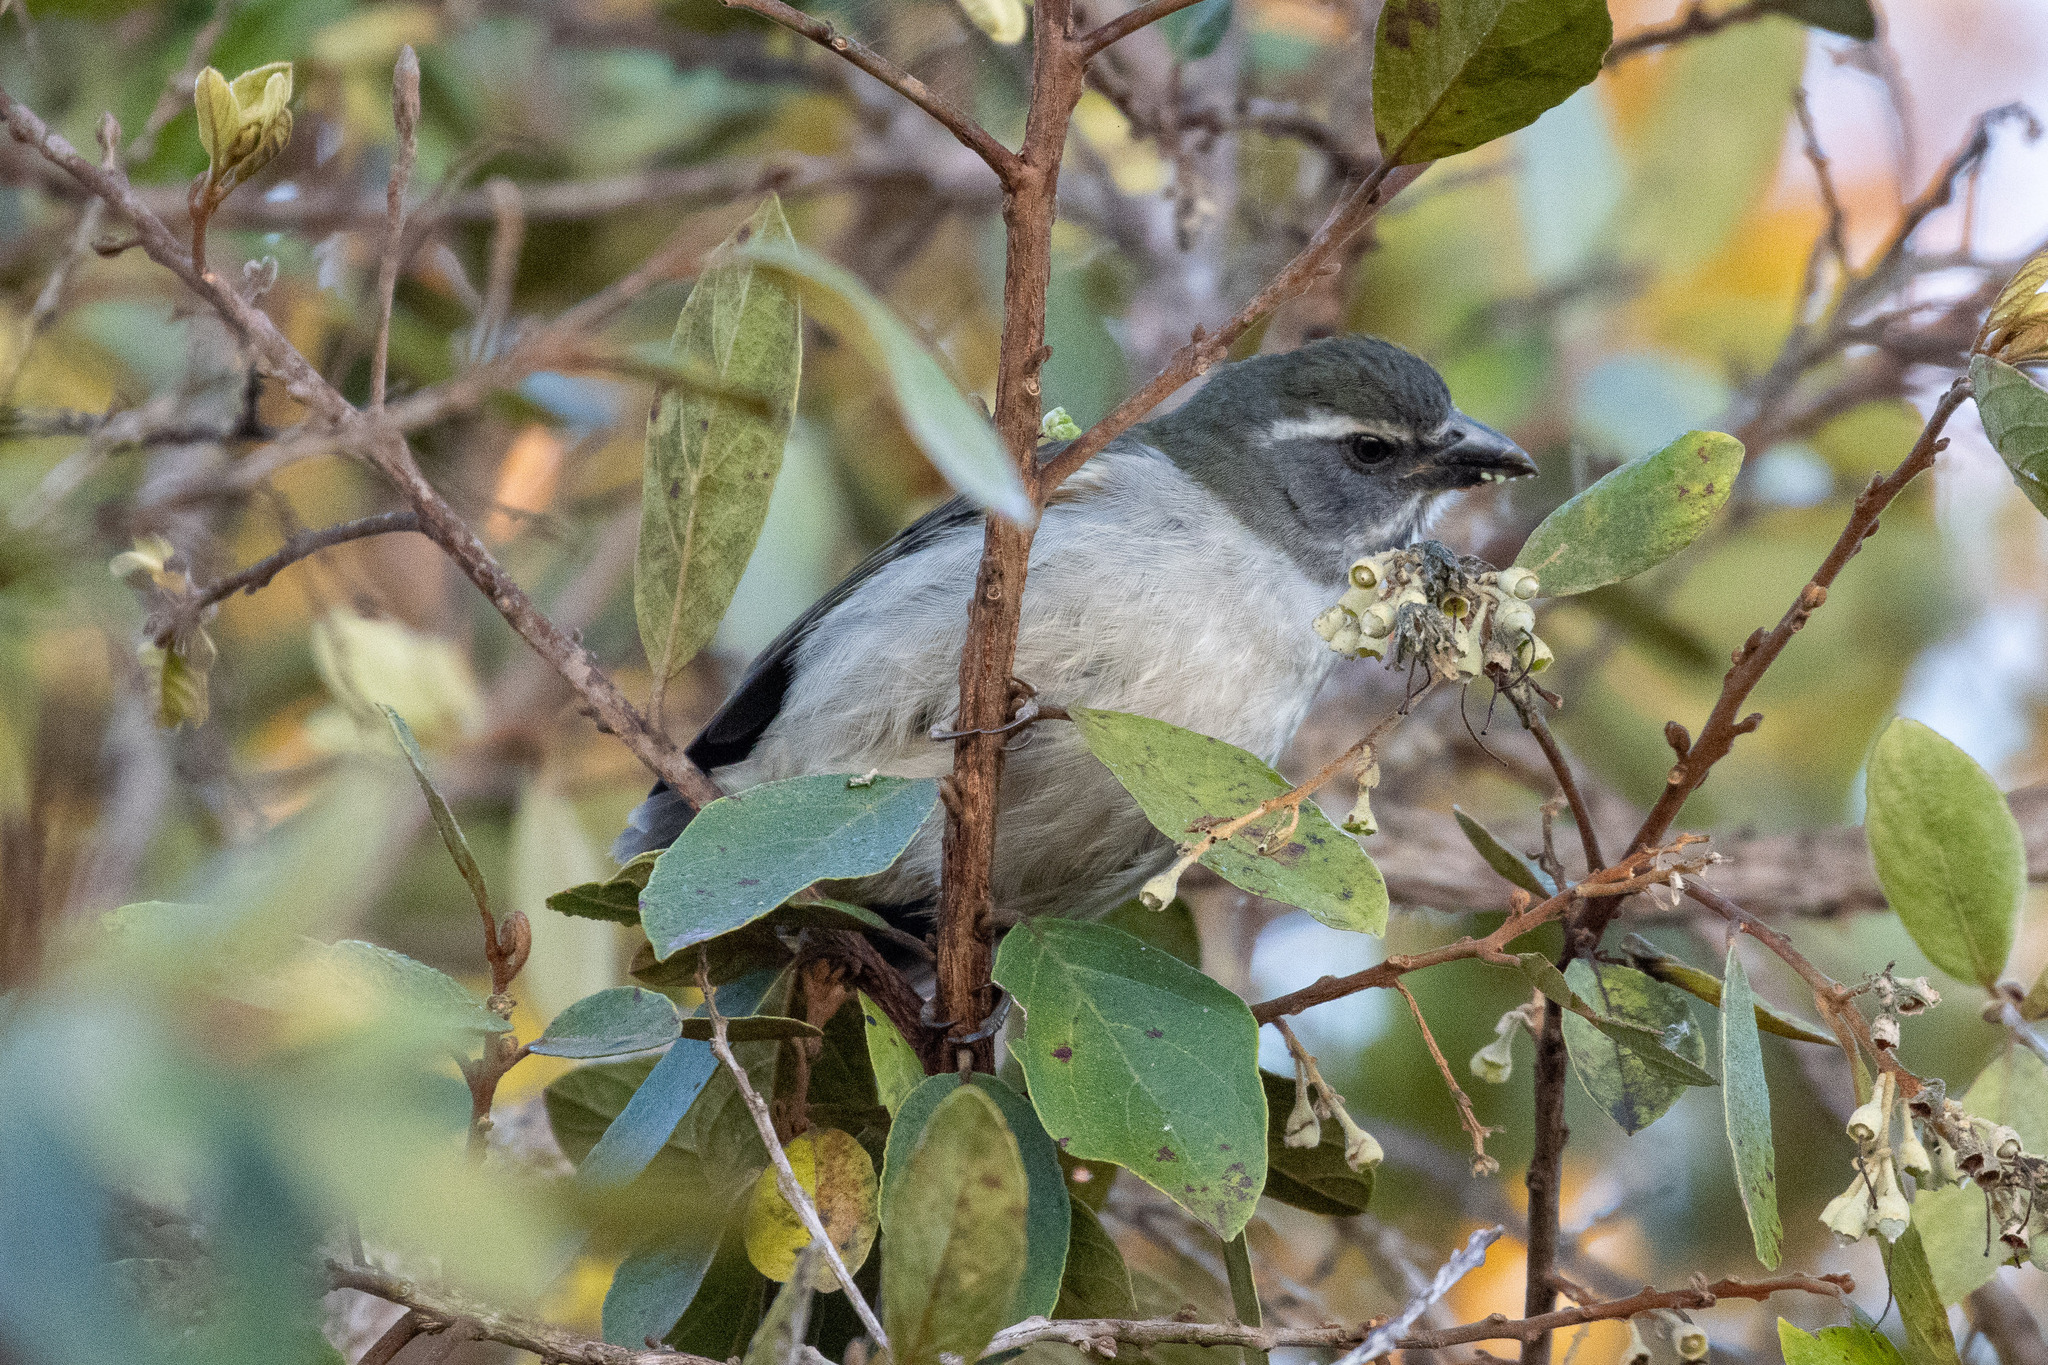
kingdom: Animalia
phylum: Chordata
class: Aves
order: Passeriformes
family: Thraupidae
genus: Saltator
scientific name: Saltator similis
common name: Green-winged saltator
